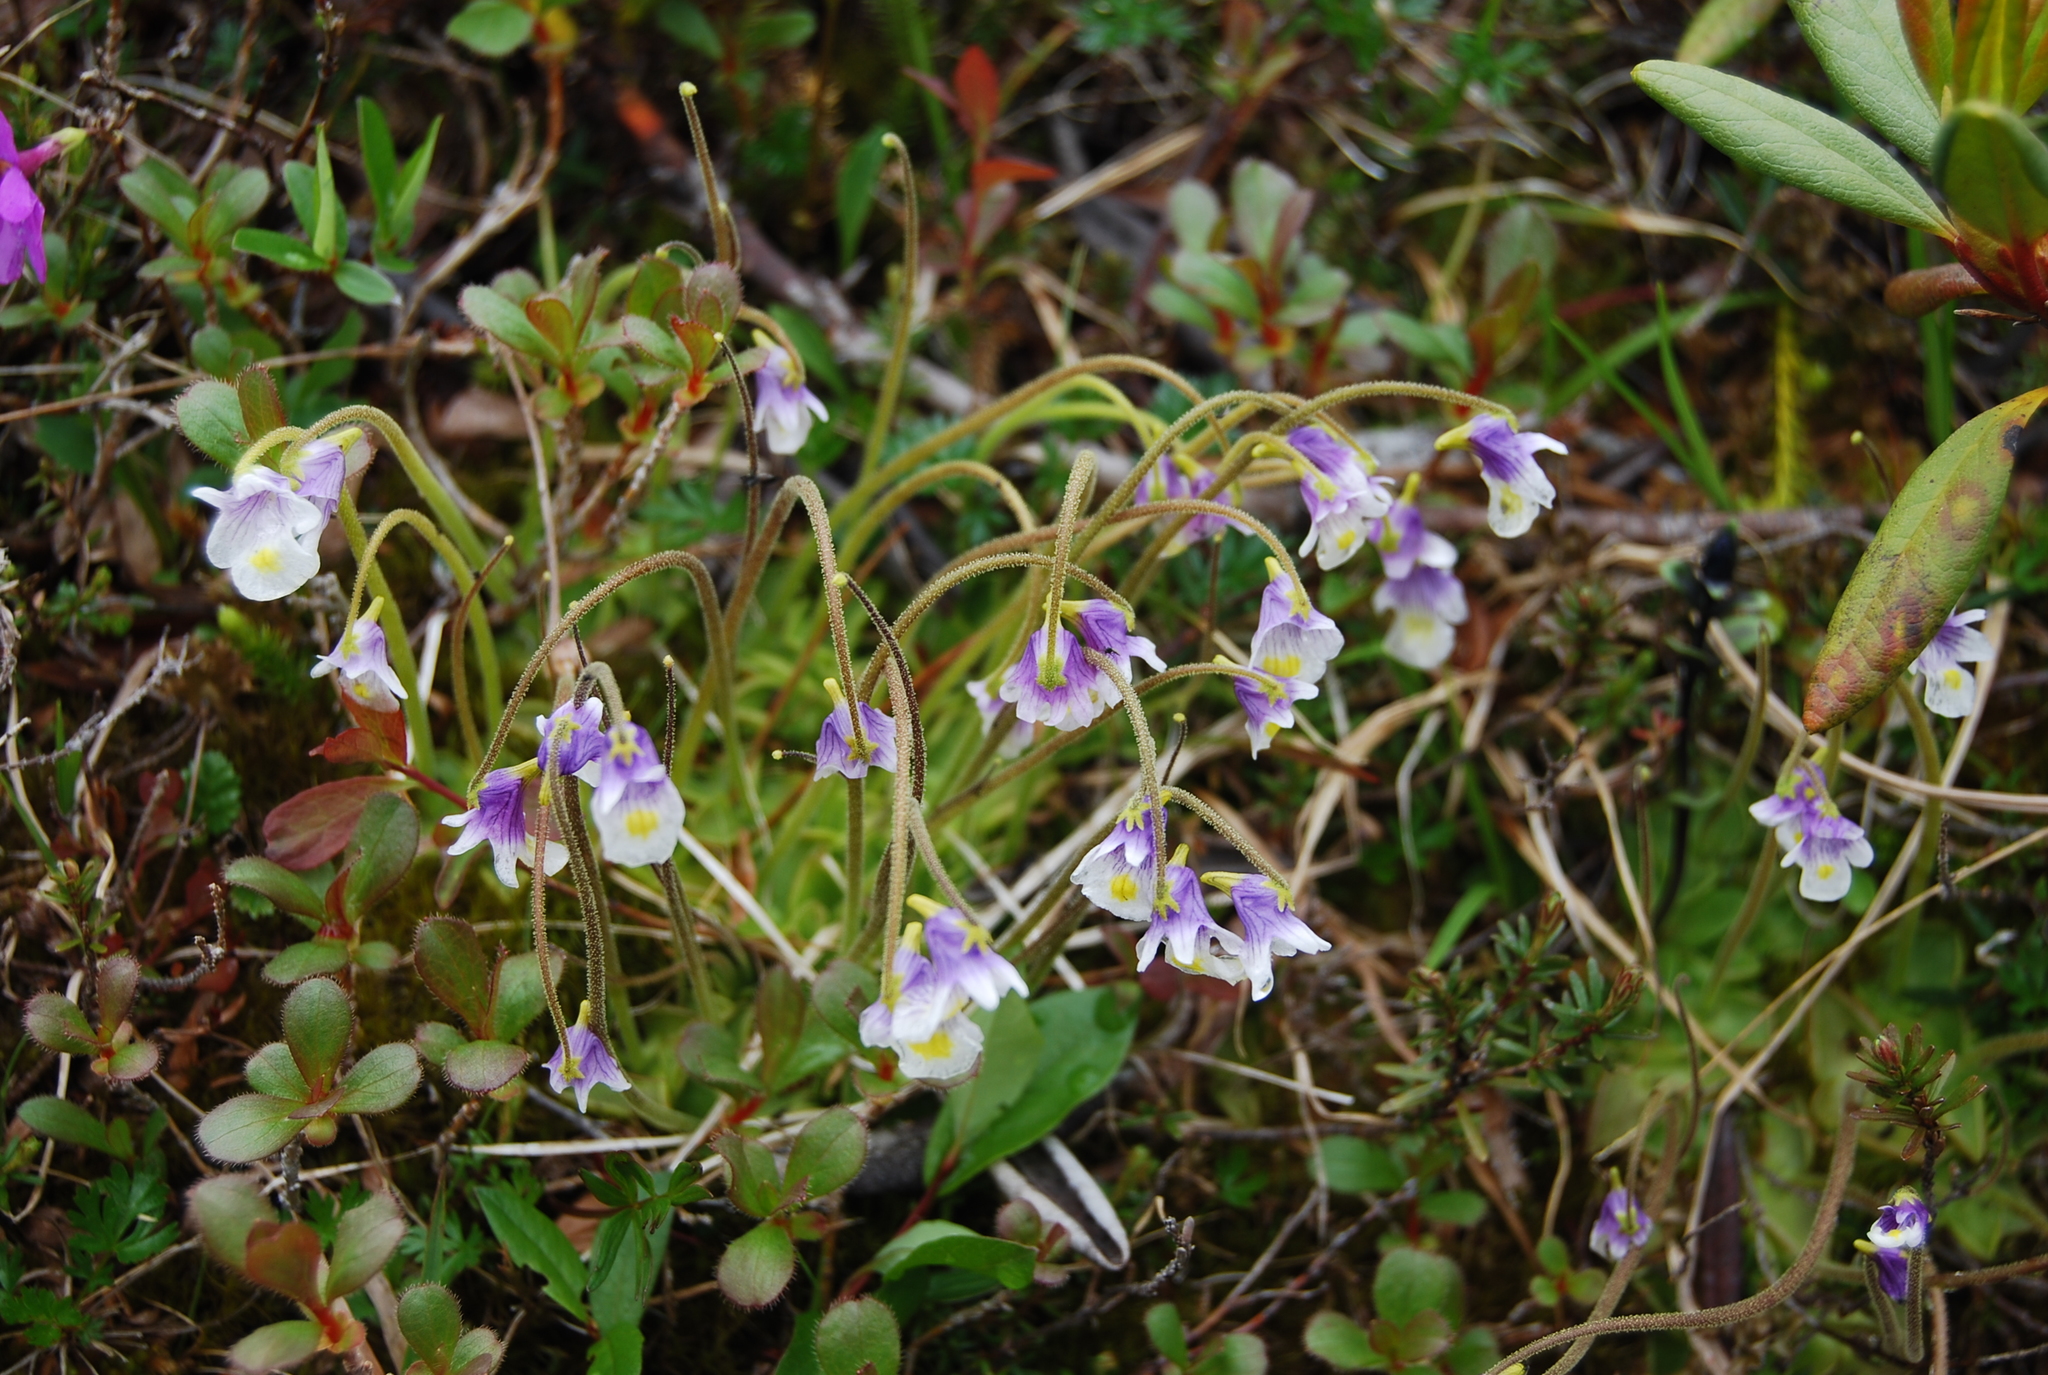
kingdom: Plantae
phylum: Tracheophyta
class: Magnoliopsida
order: Lamiales
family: Lentibulariaceae
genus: Pinguicula
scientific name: Pinguicula spathulata
